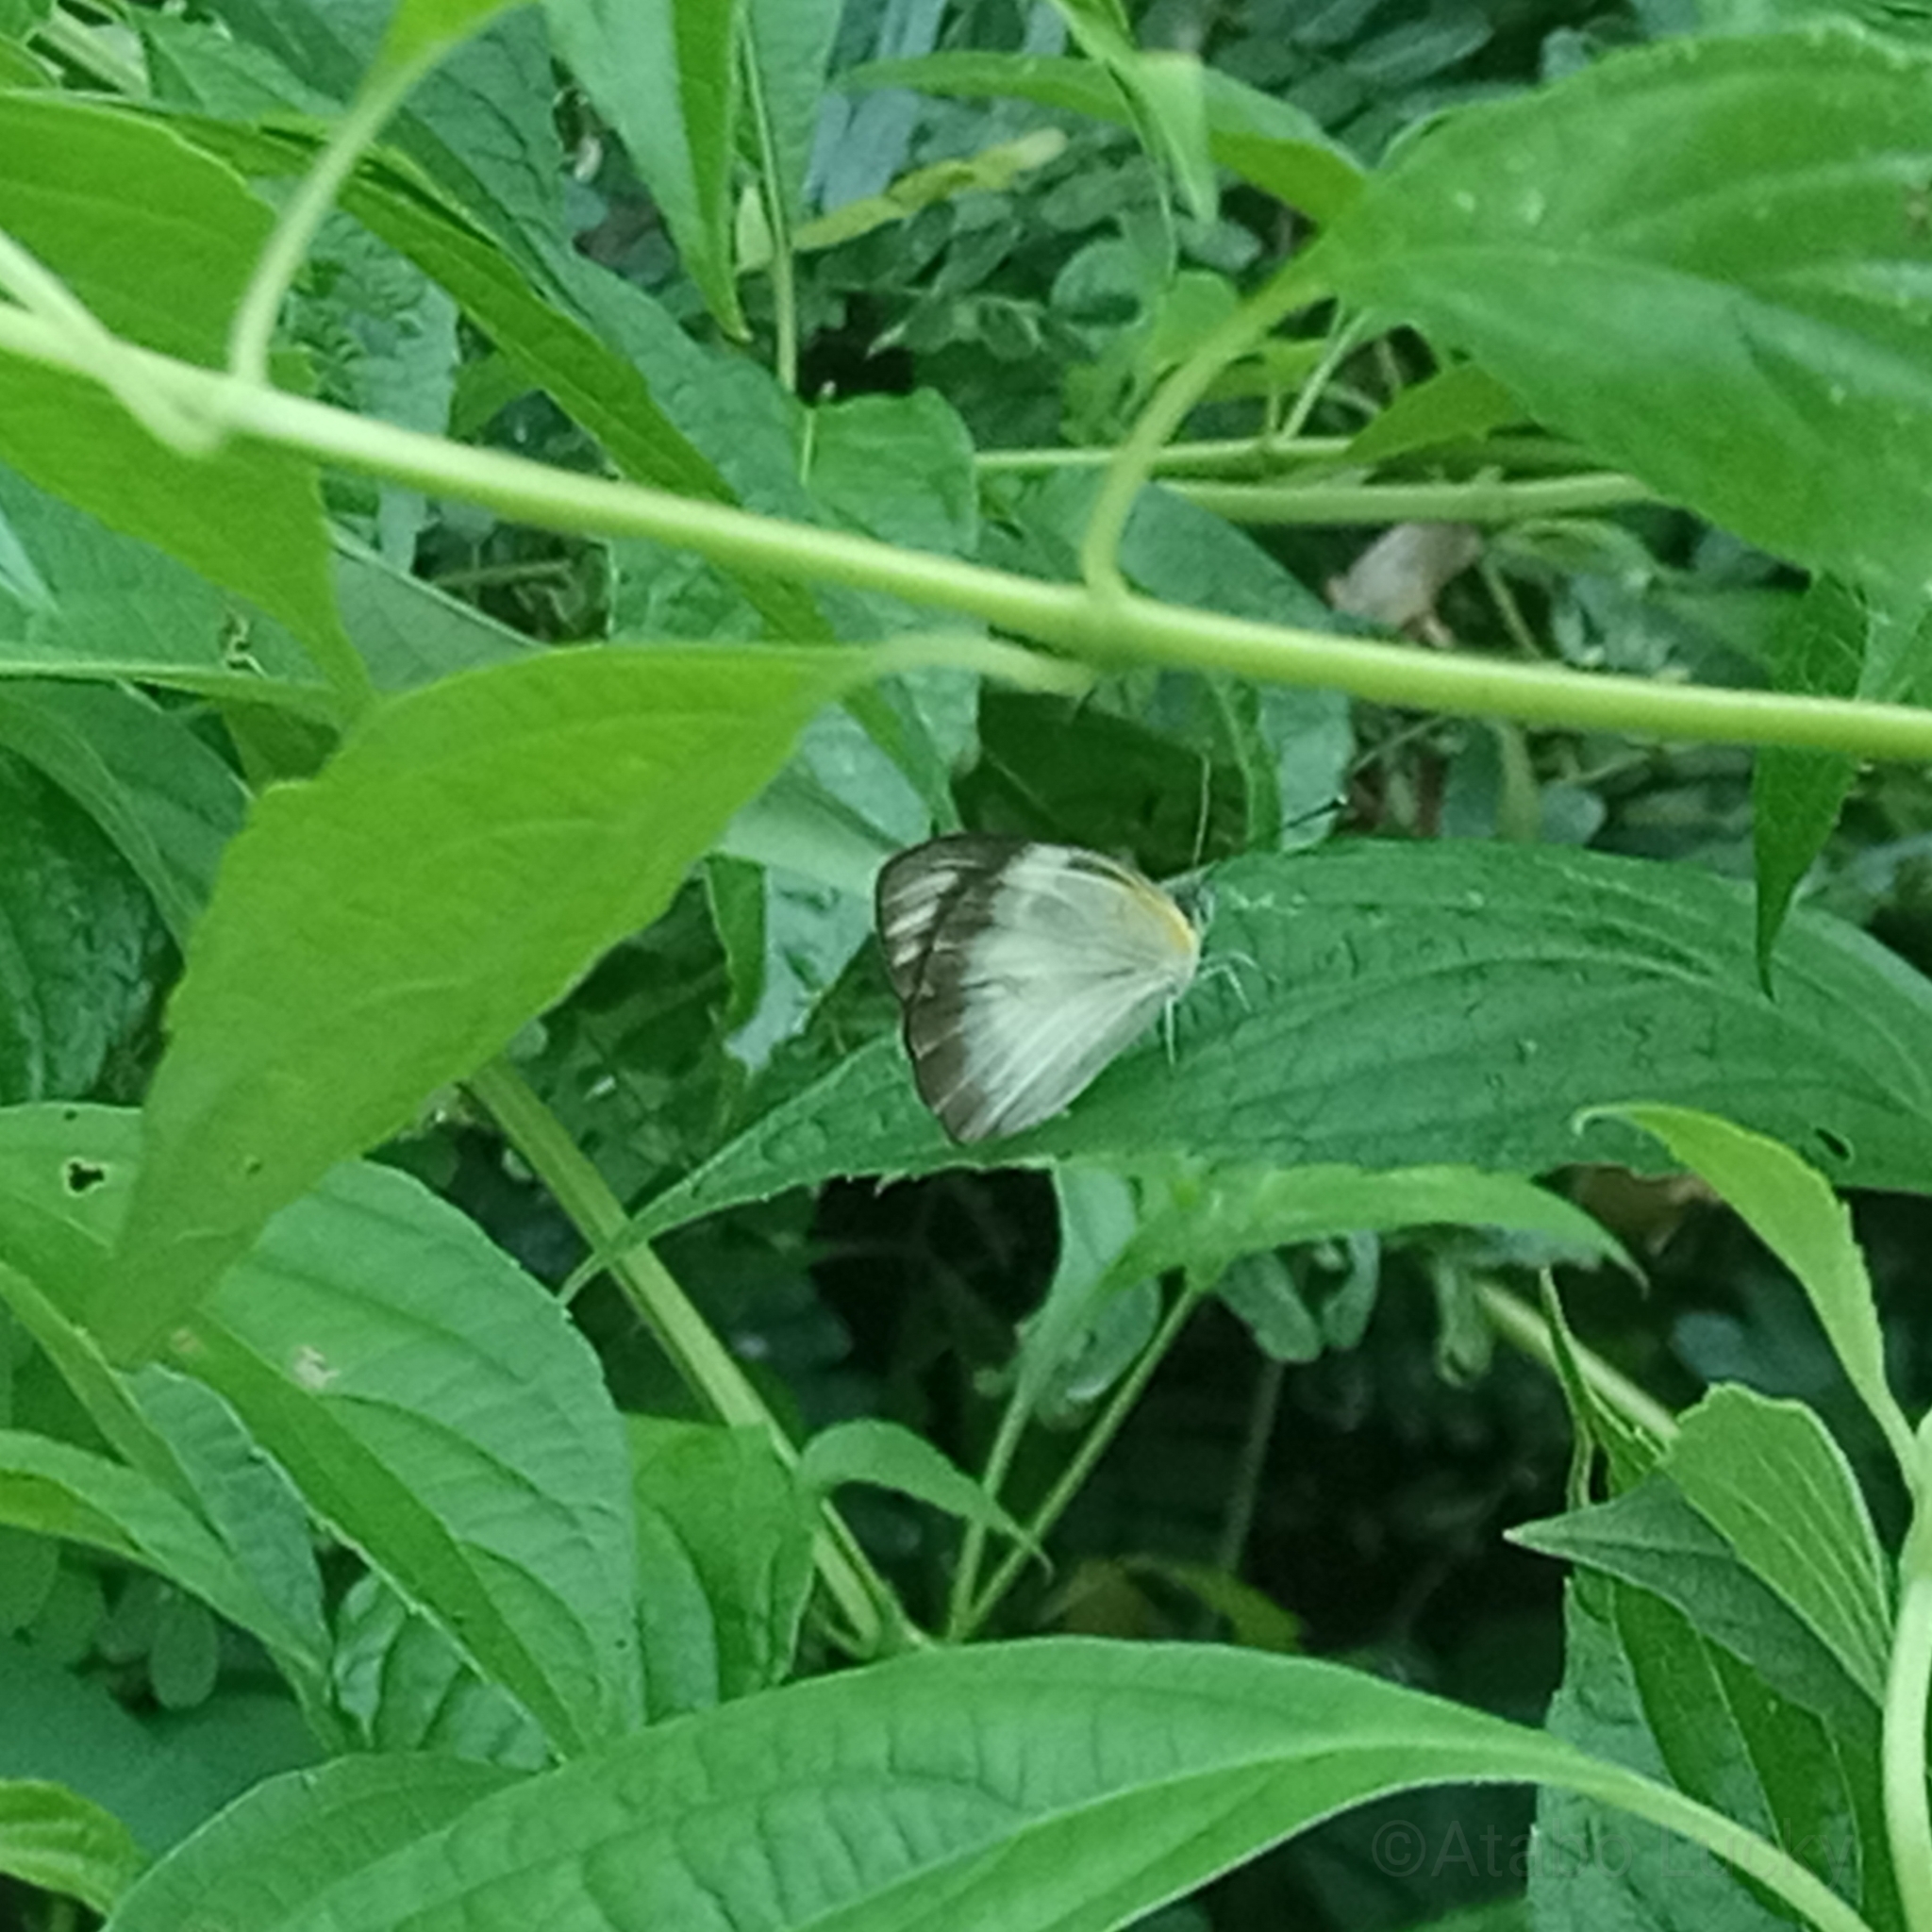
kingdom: Animalia
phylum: Arthropoda
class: Insecta
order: Lepidoptera
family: Pieridae
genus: Glutophrissa
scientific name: Glutophrissa epaphia
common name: African albatross
